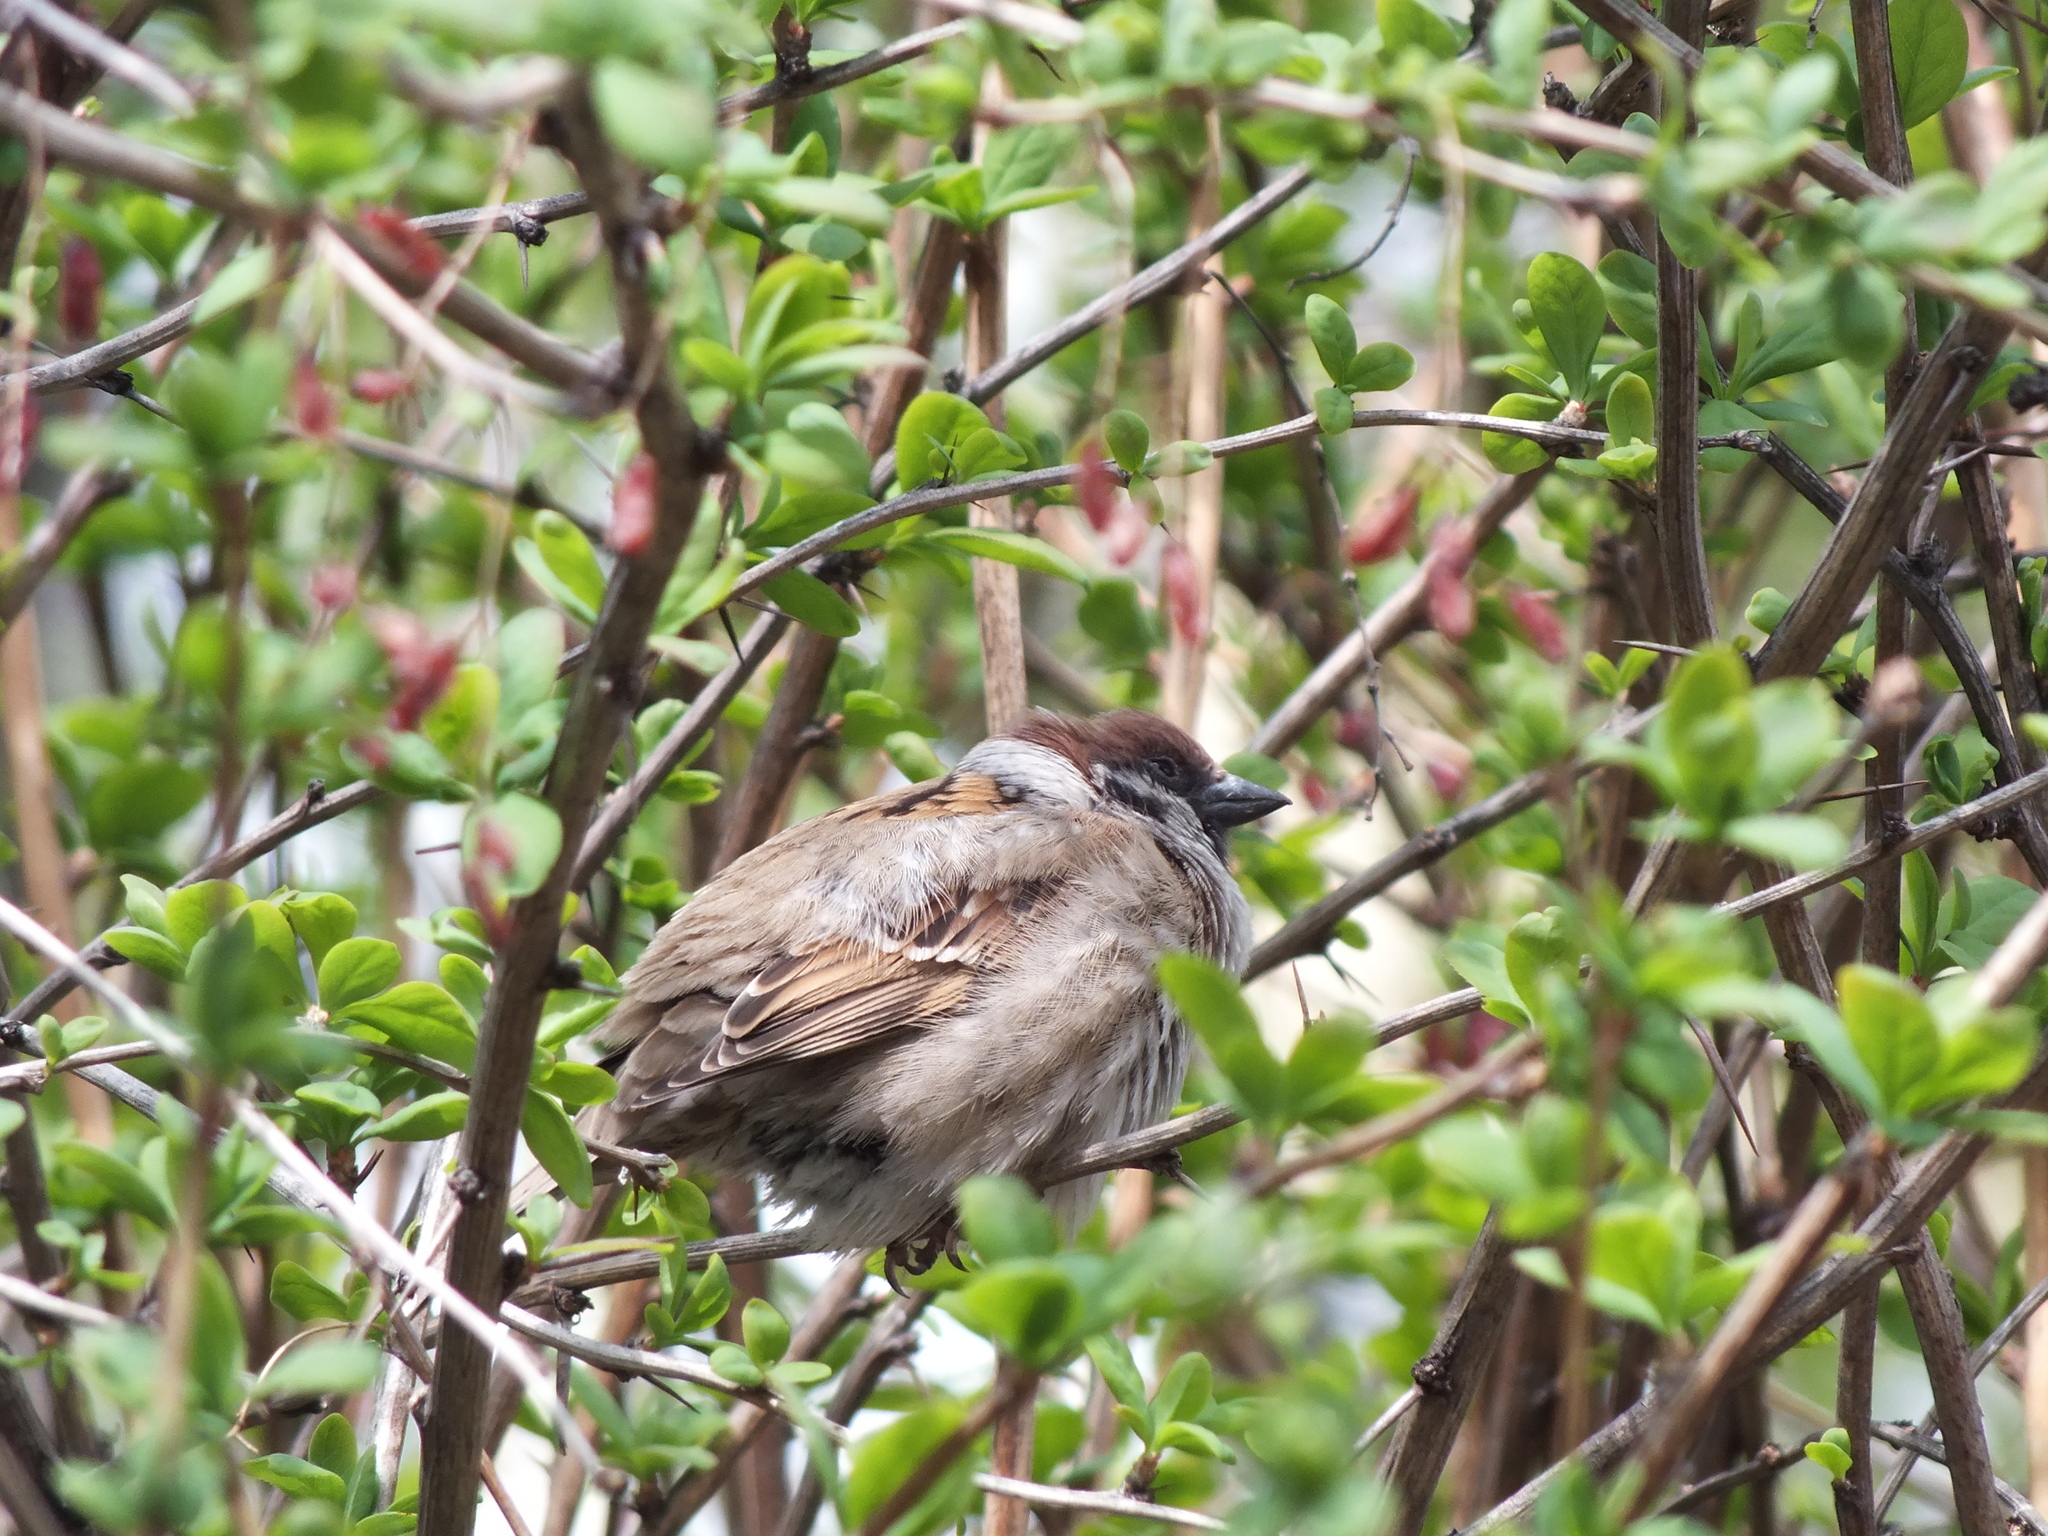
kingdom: Animalia
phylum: Chordata
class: Aves
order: Passeriformes
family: Passeridae
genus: Passer
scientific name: Passer montanus
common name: Eurasian tree sparrow
